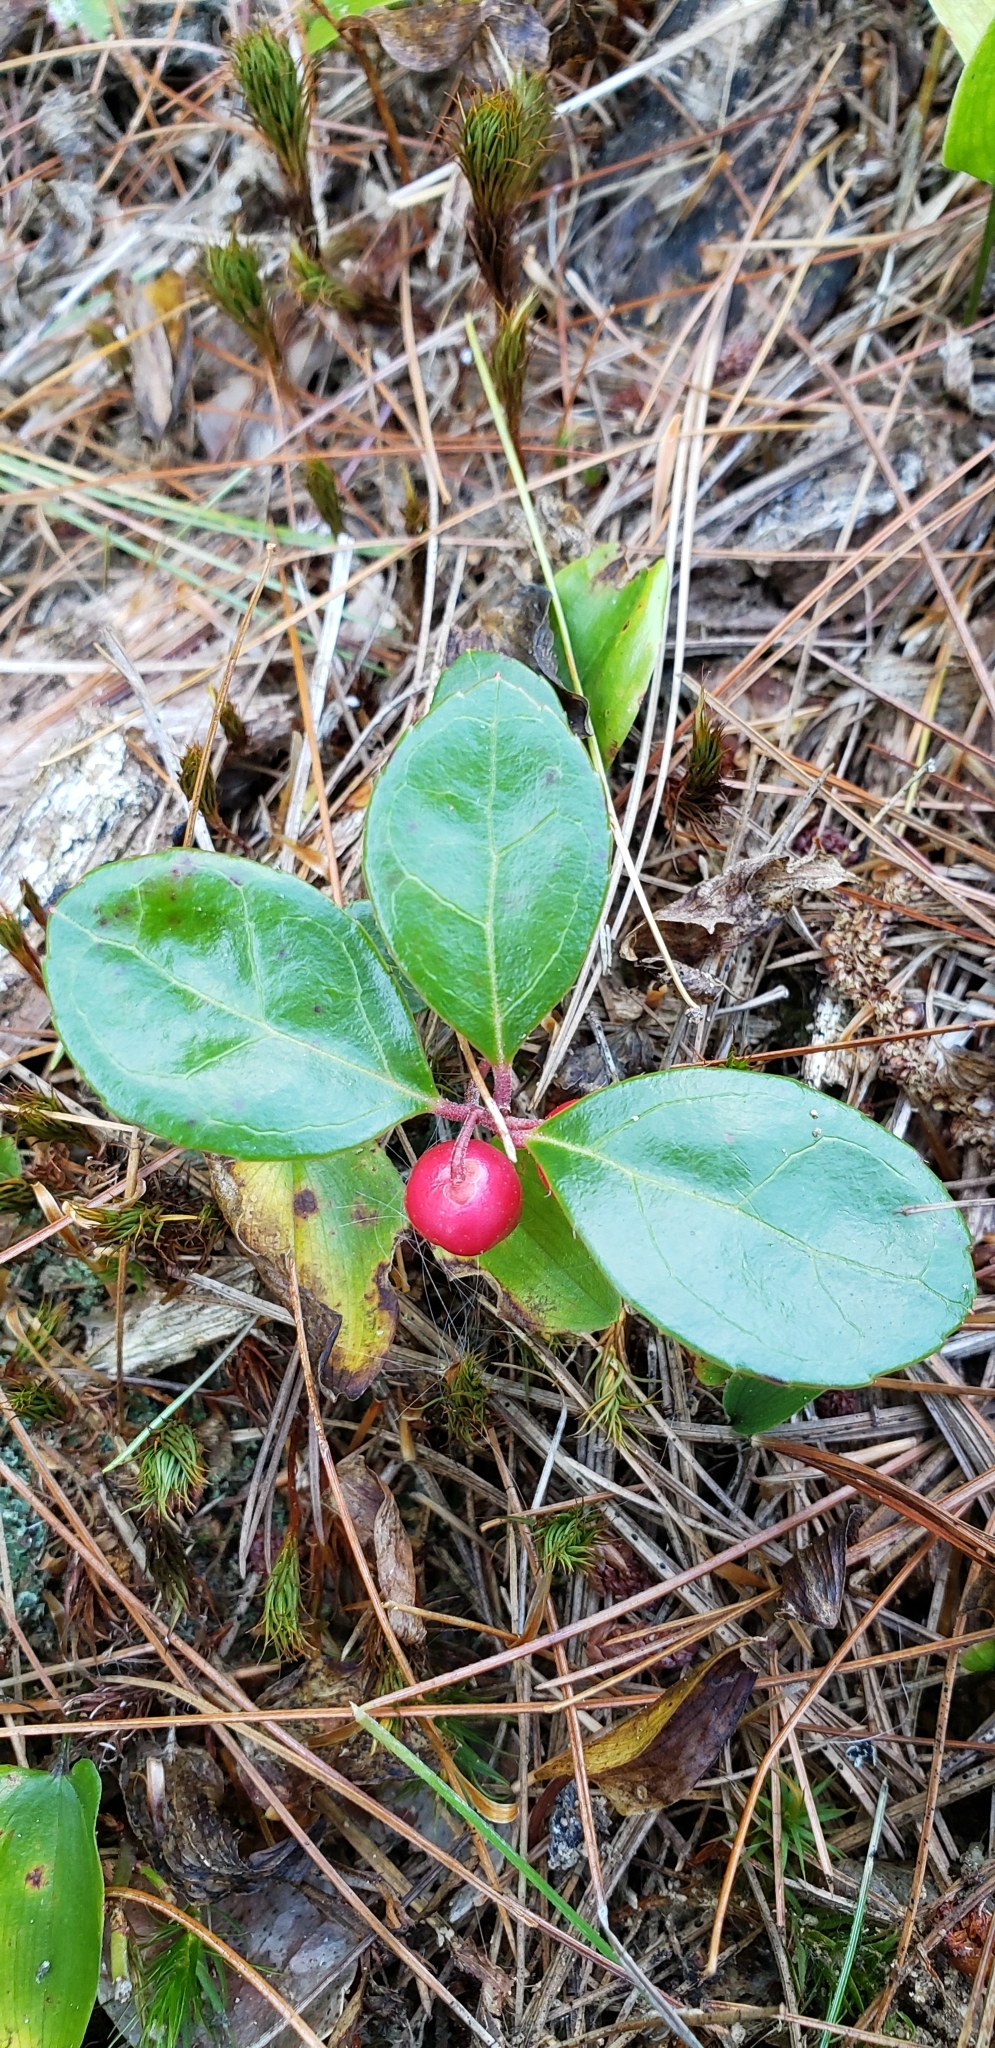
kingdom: Plantae
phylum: Tracheophyta
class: Magnoliopsida
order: Ericales
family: Ericaceae
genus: Gaultheria
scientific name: Gaultheria procumbens
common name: Checkerberry
